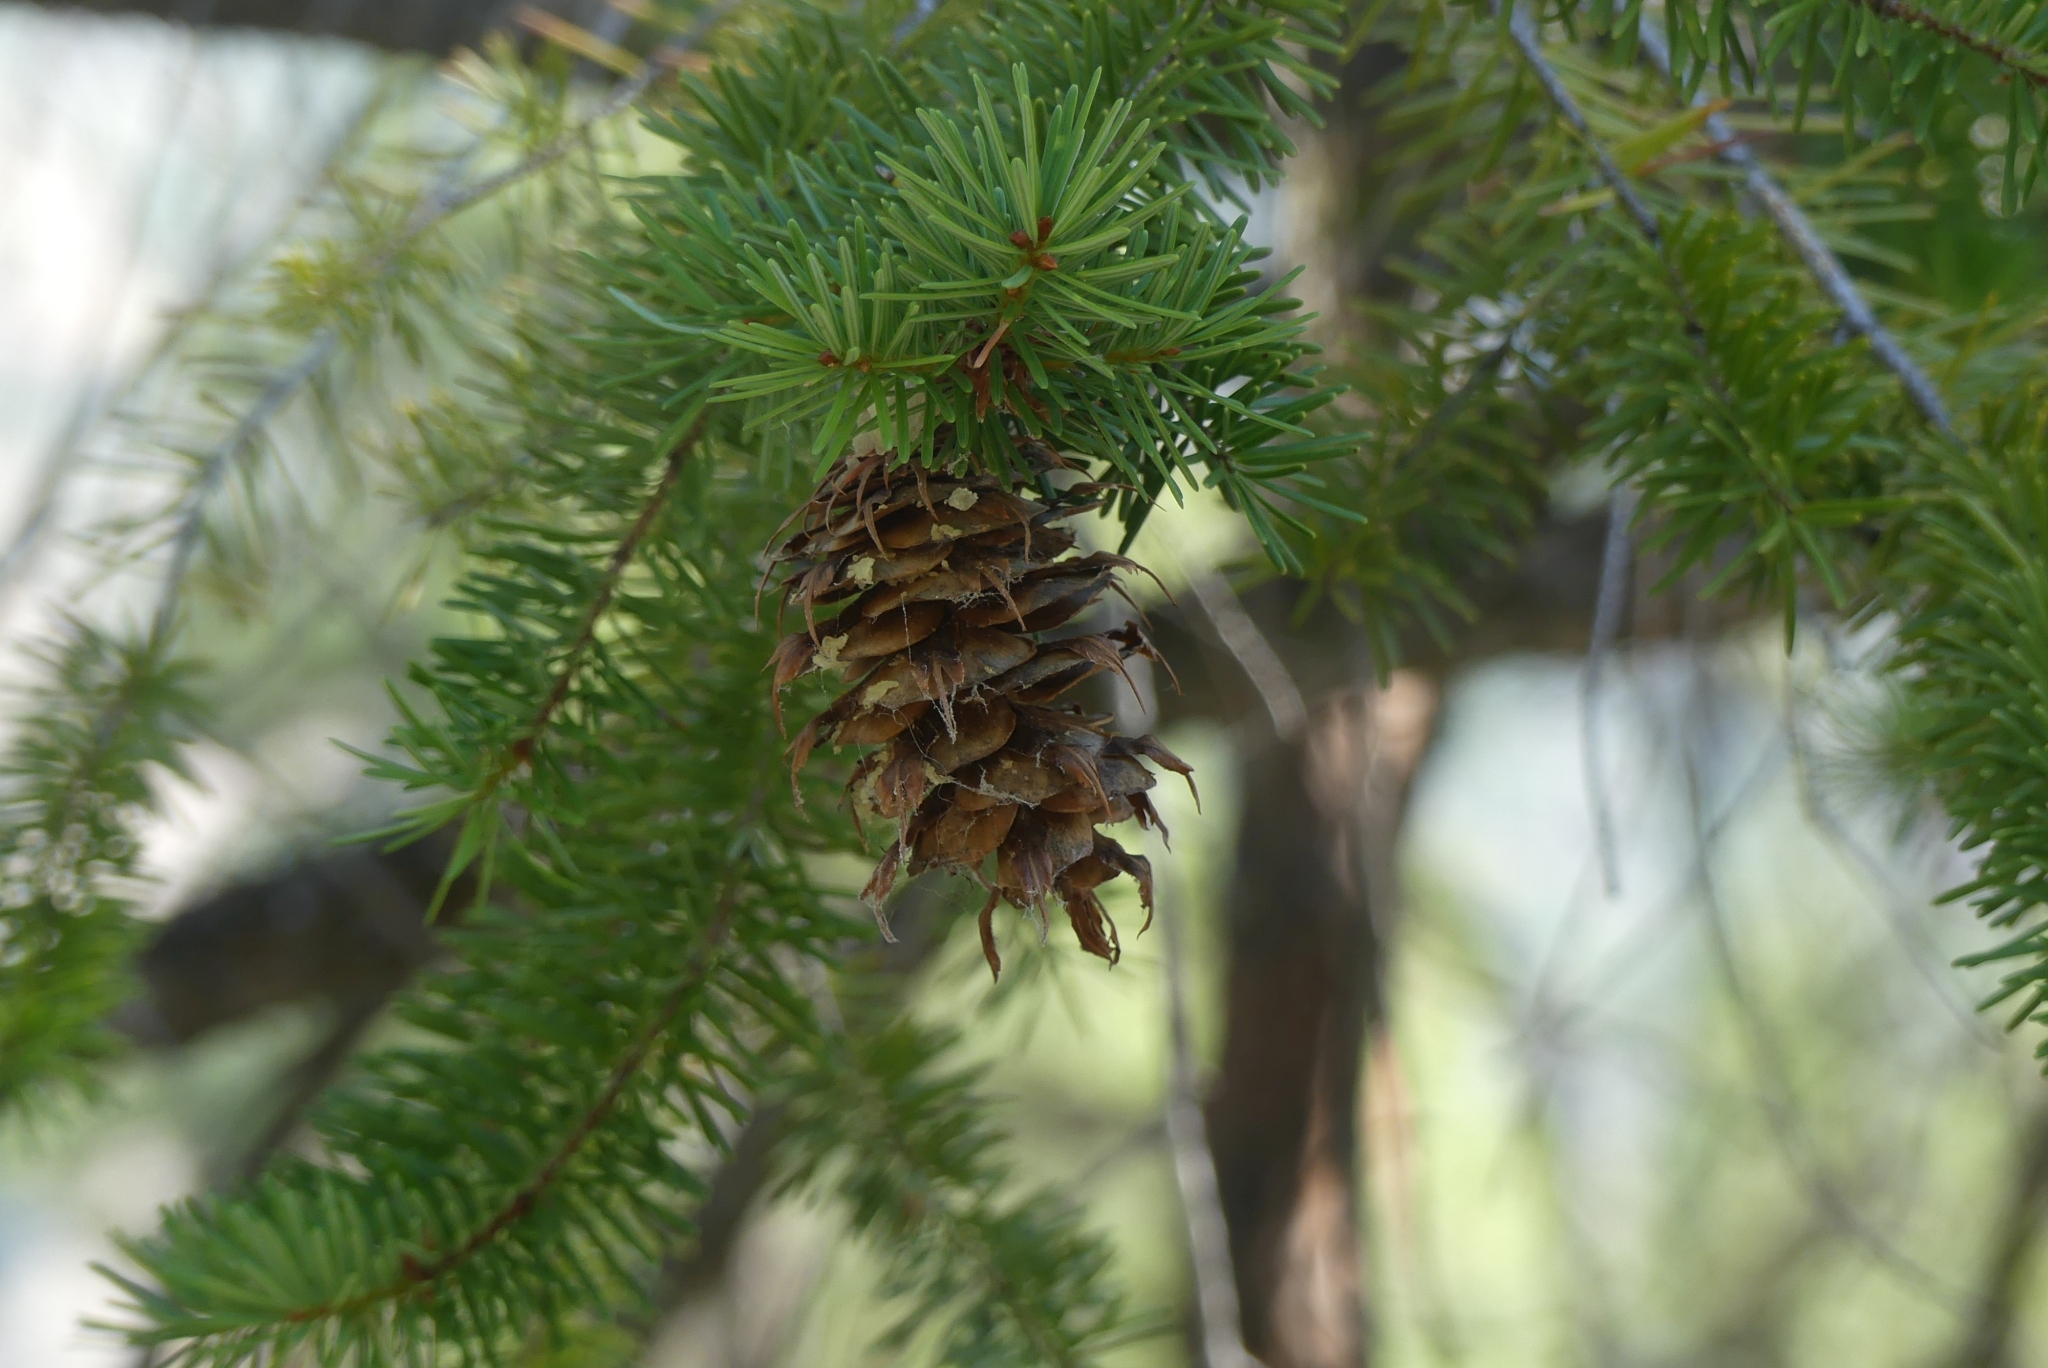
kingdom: Plantae
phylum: Tracheophyta
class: Pinopsida
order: Pinales
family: Pinaceae
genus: Pseudotsuga
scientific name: Pseudotsuga menziesii
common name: Douglas fir
